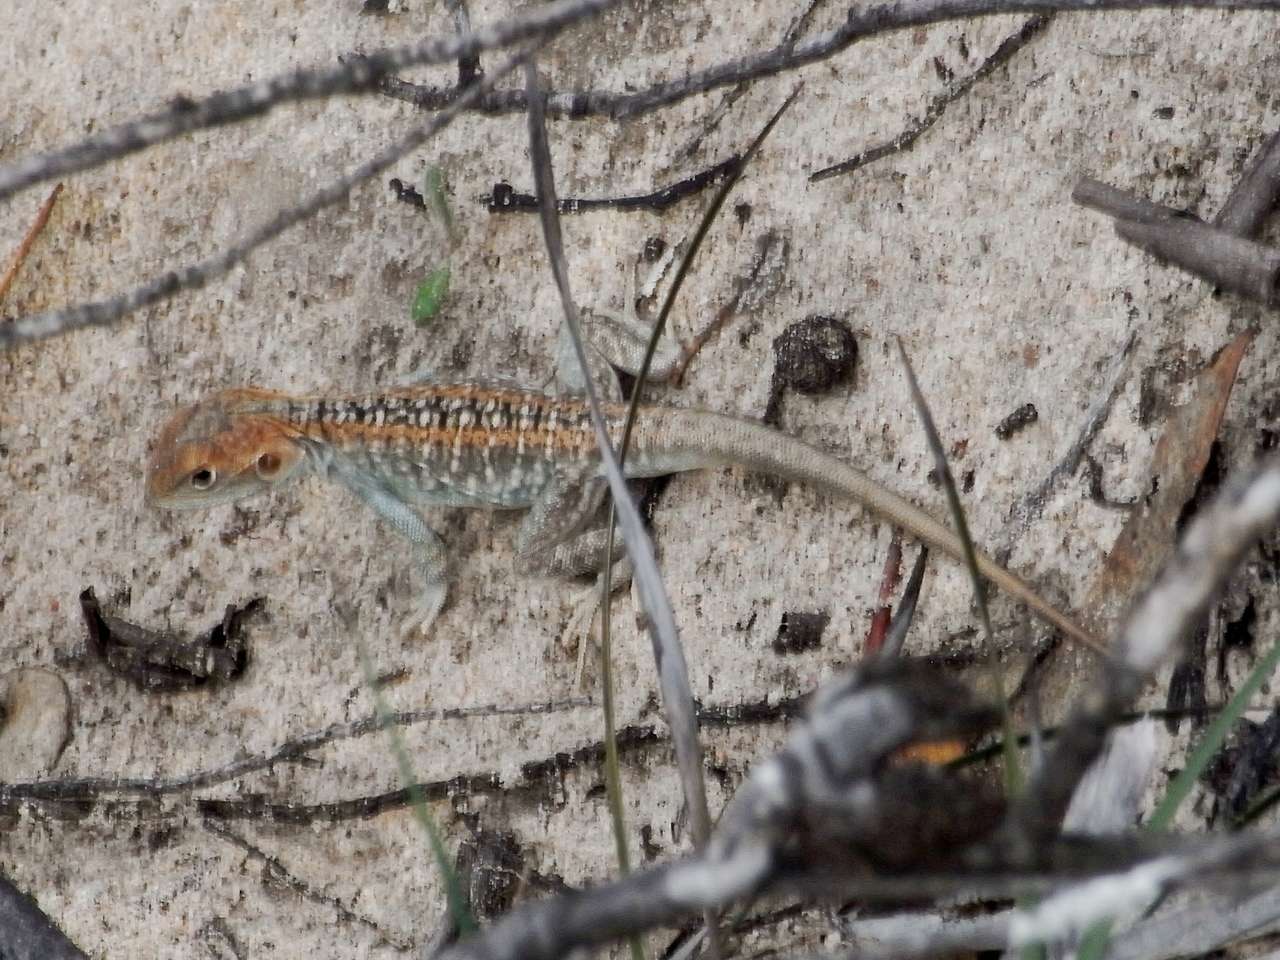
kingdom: Animalia
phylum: Chordata
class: Squamata
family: Agamidae
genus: Ctenophorus
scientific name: Ctenophorus pictus
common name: Painted dragon
